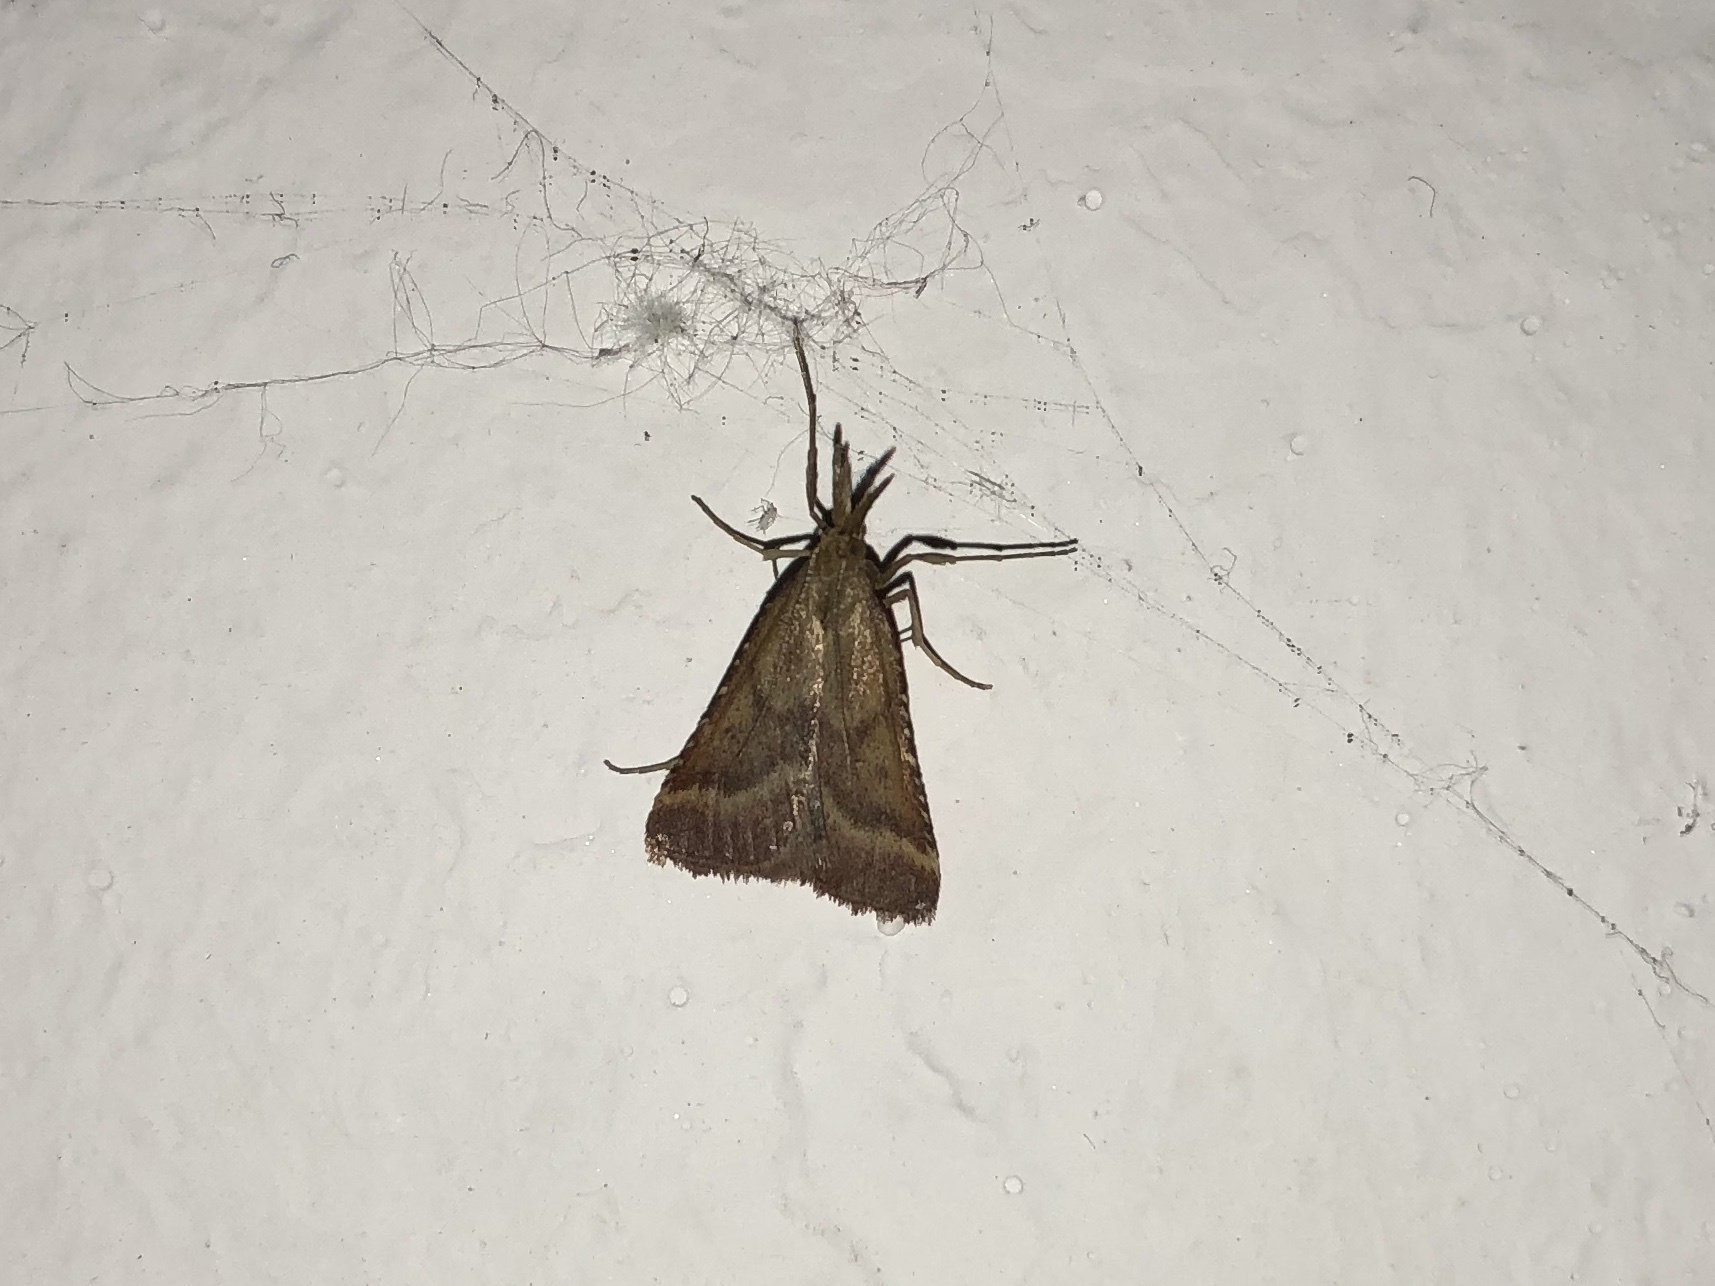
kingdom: Animalia
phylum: Arthropoda
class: Insecta
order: Lepidoptera
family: Pyralidae
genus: Synaphe
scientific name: Synaphe punctalis
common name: Long-legged tabby
